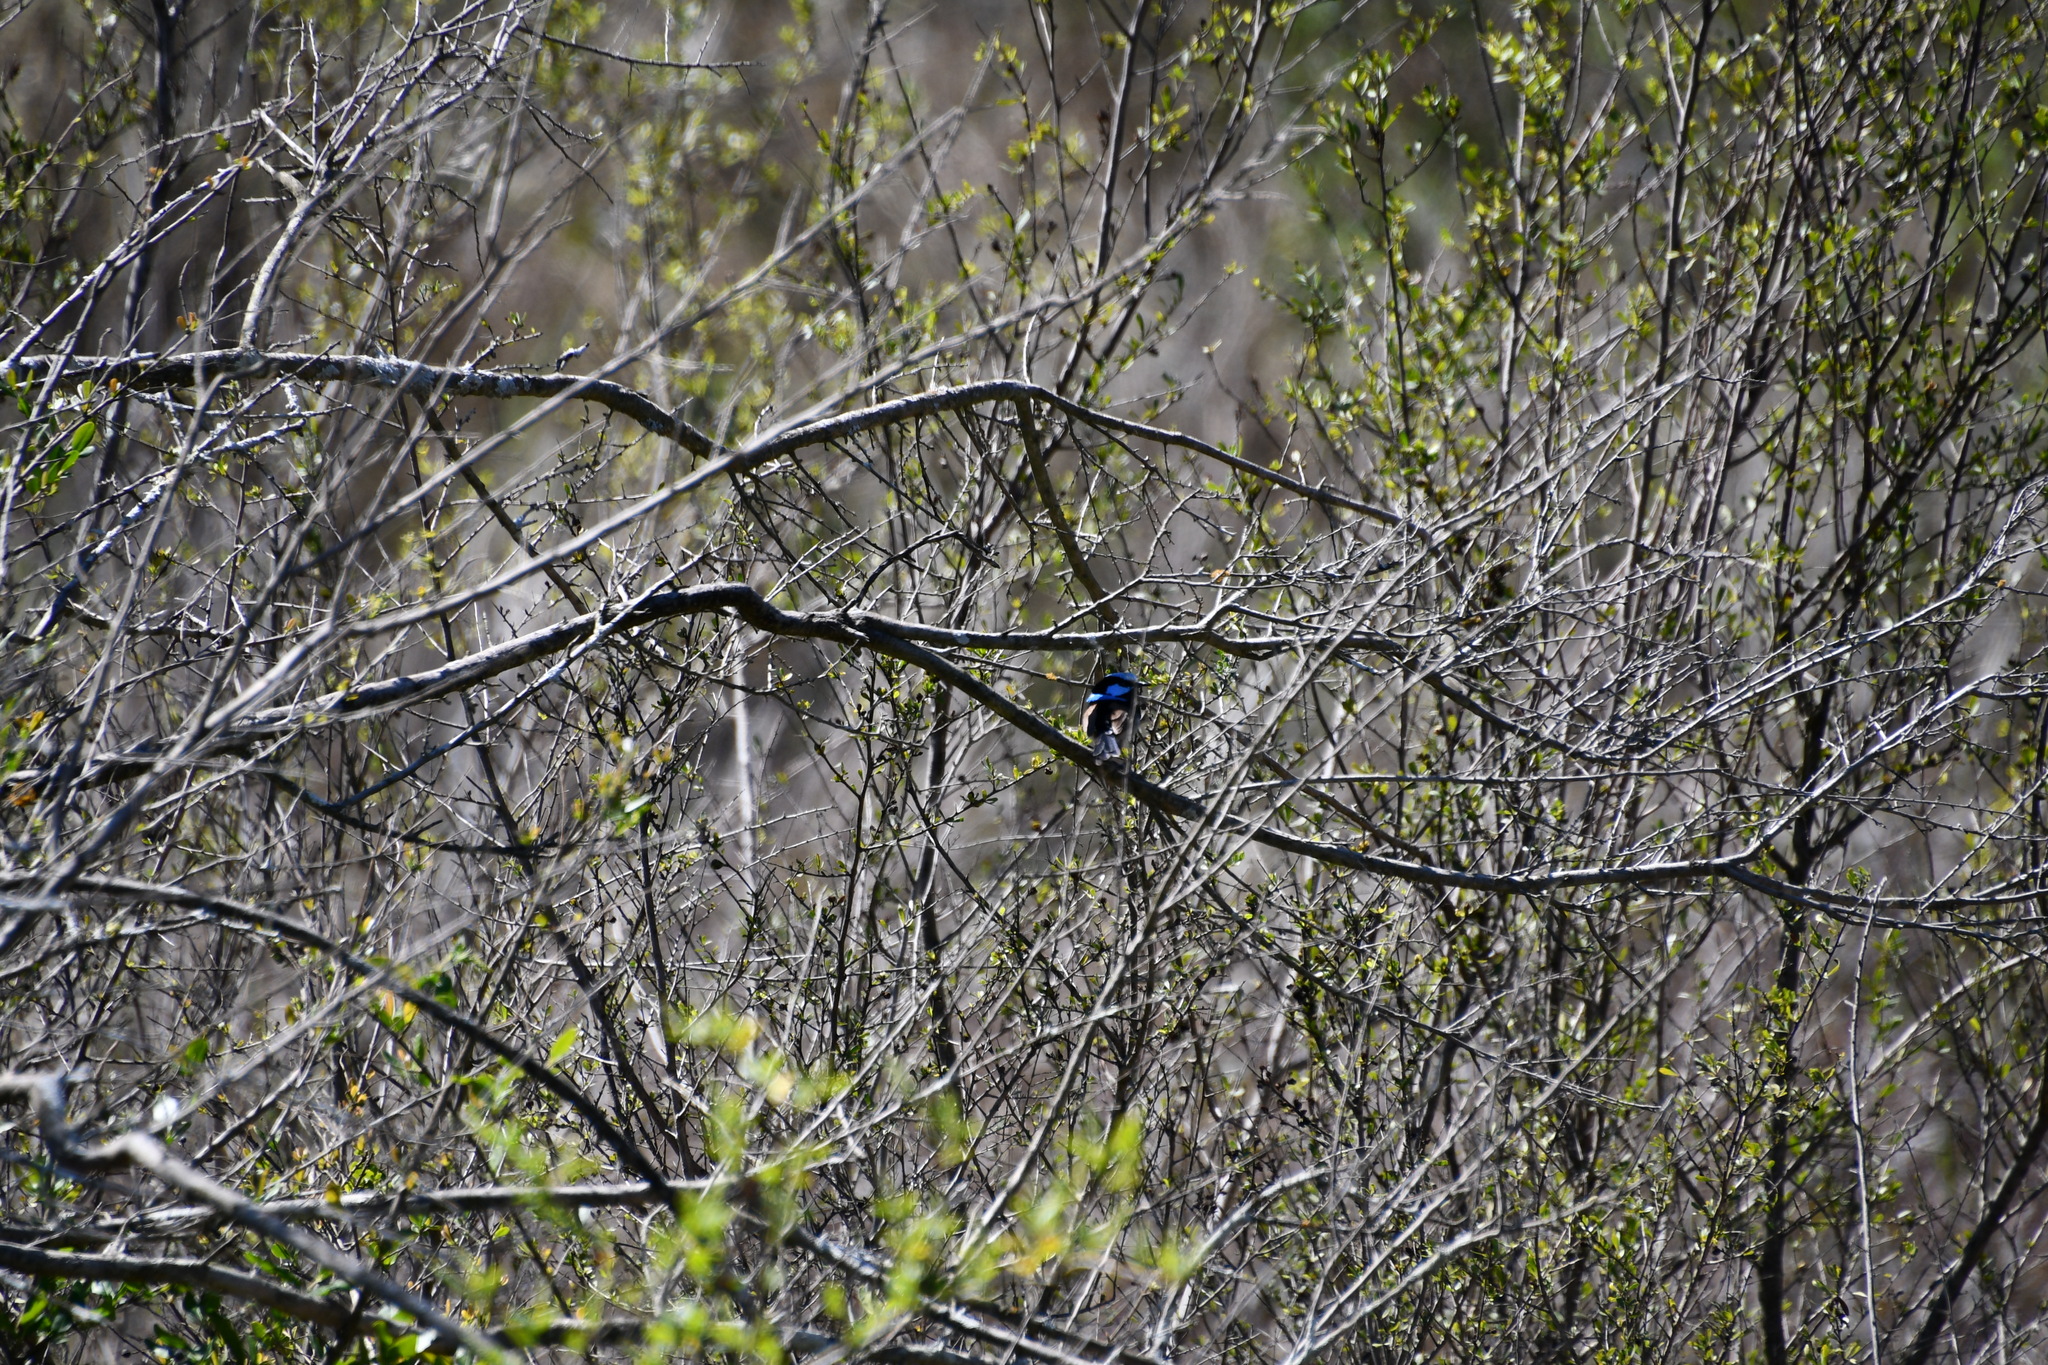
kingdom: Animalia
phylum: Chordata
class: Aves
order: Passeriformes
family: Maluridae
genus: Malurus
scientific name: Malurus cyaneus
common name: Superb fairywren
